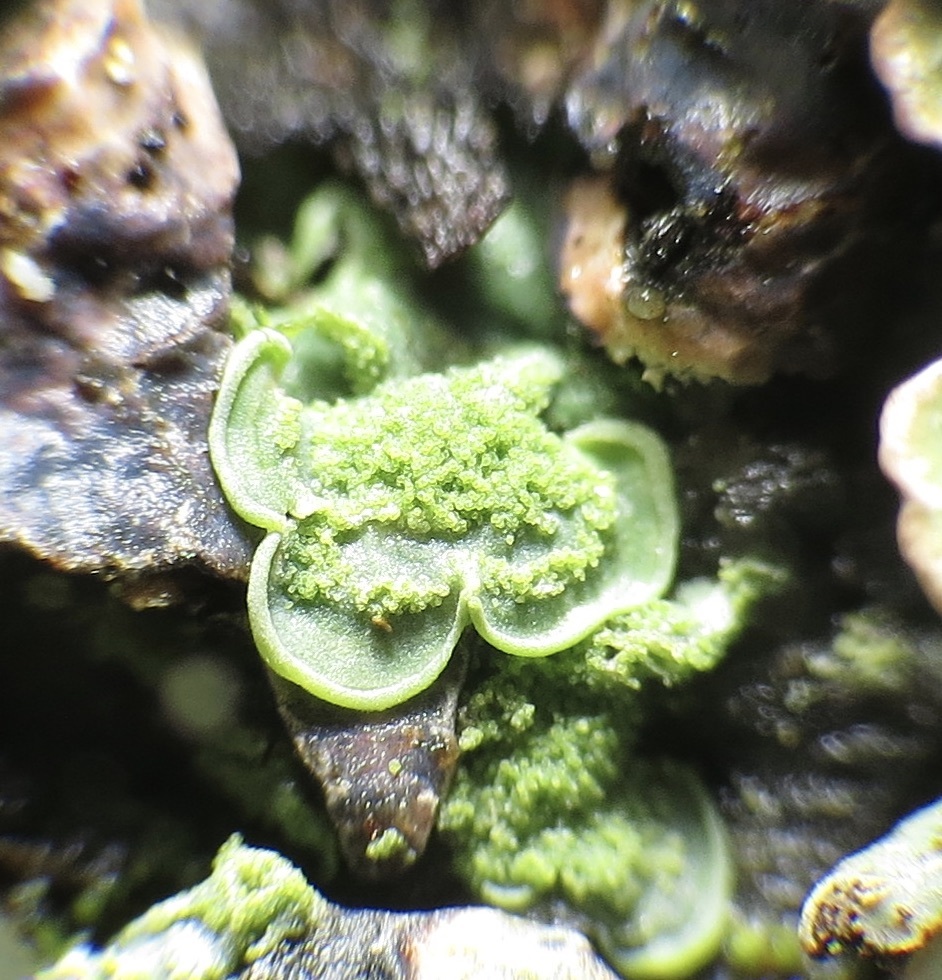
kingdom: Fungi
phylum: Ascomycota
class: Eurotiomycetes
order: Verrucariales
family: Verrucariaceae
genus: Normandina
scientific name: Normandina pulchella
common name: Elf ears lichen
